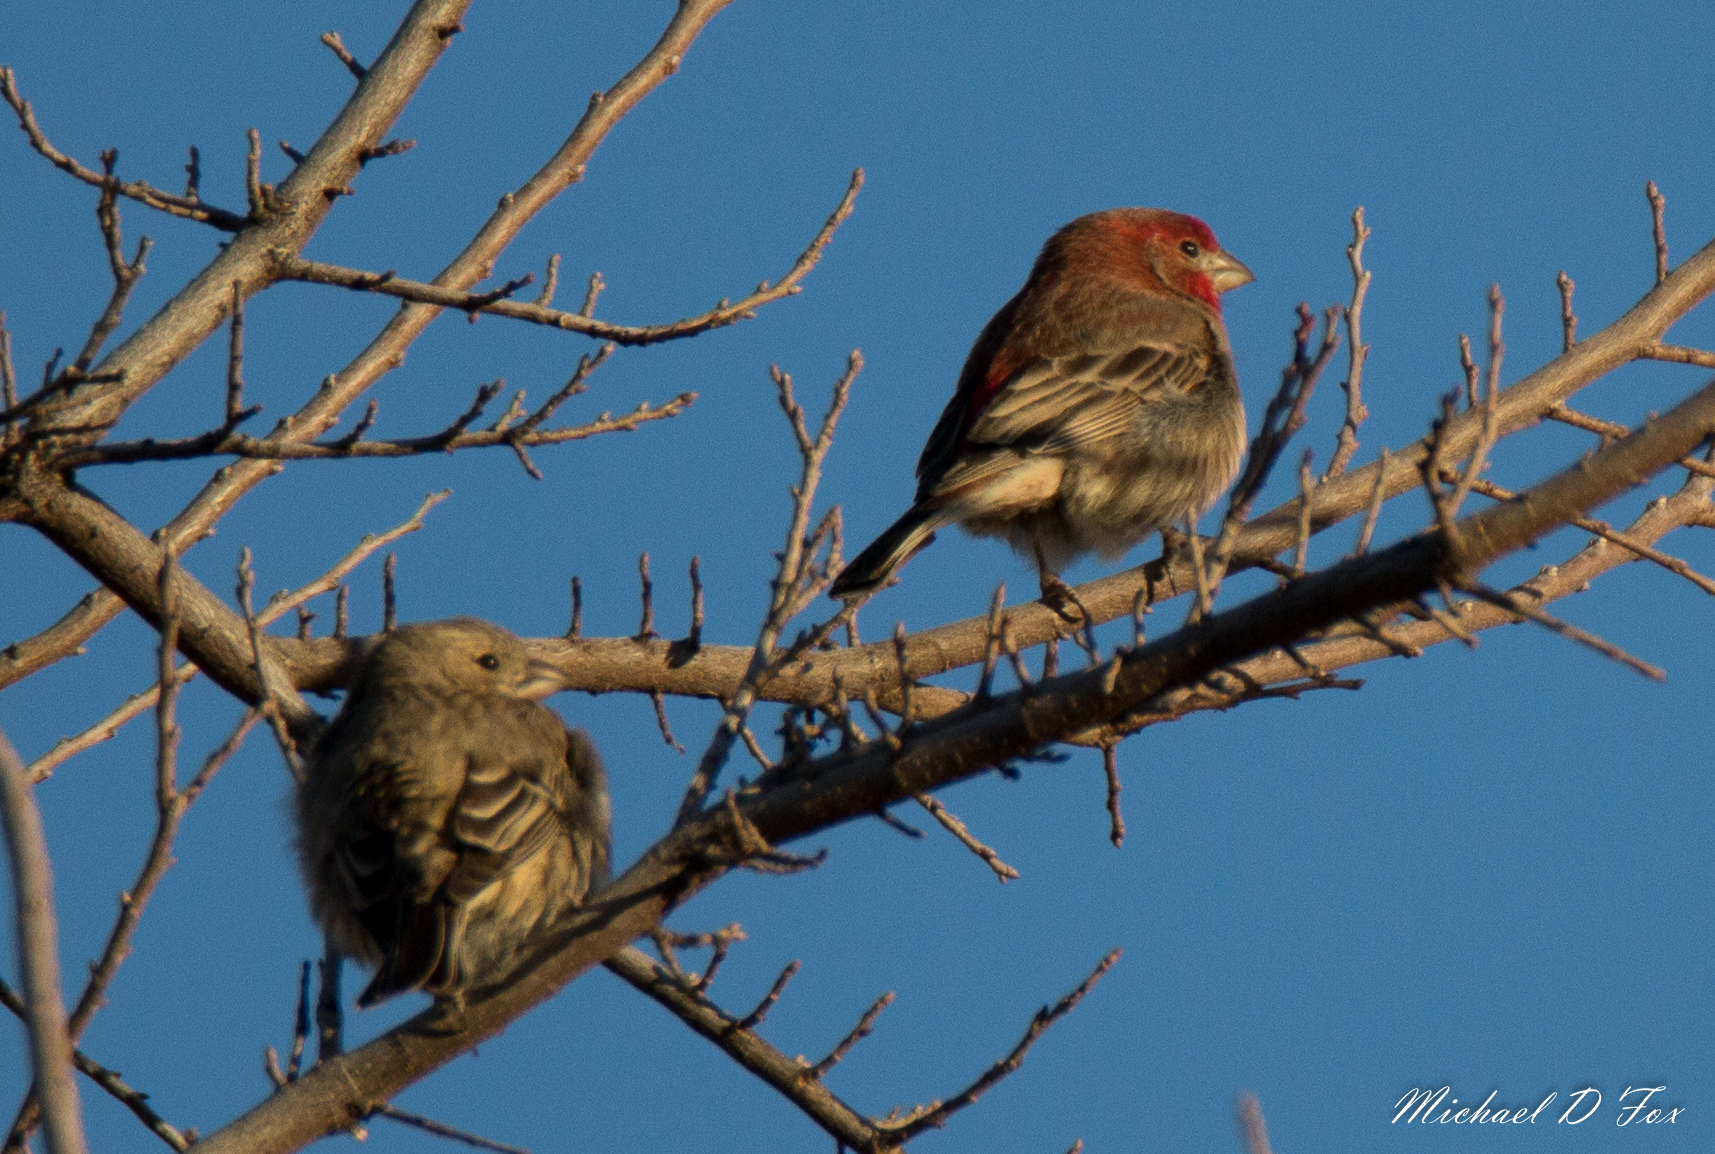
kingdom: Animalia
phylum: Chordata
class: Aves
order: Passeriformes
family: Fringillidae
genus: Haemorhous
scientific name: Haemorhous mexicanus
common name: House finch
